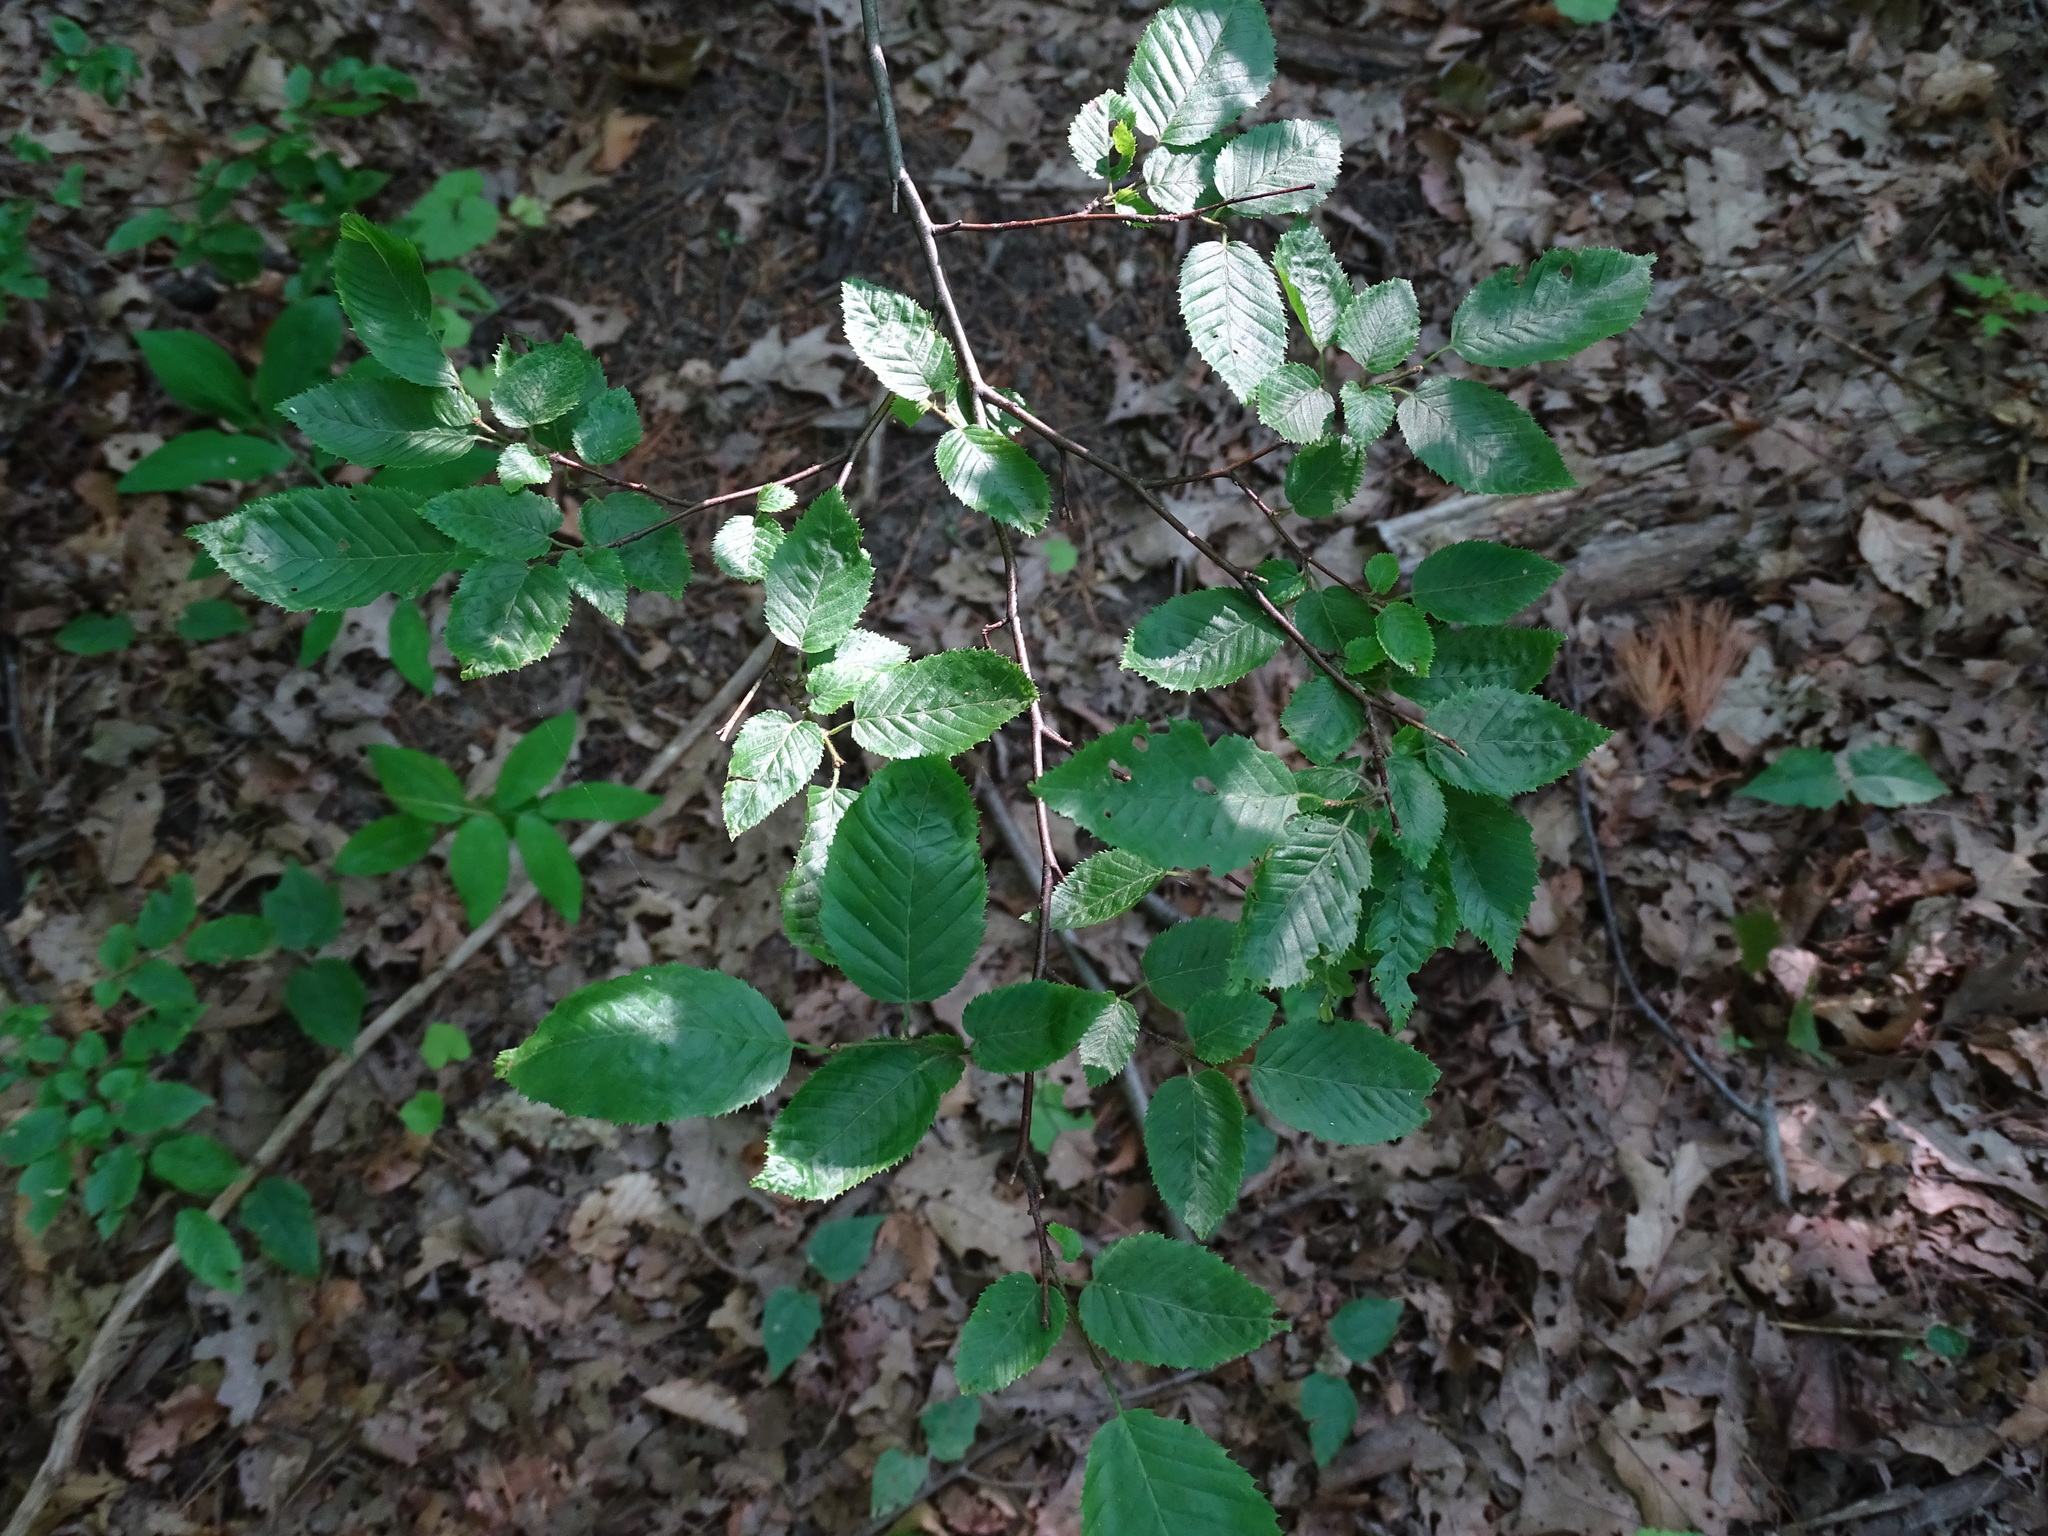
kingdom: Plantae
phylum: Tracheophyta
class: Magnoliopsida
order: Fagales
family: Betulaceae
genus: Carpinus
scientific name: Carpinus caroliniana
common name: American hornbeam
